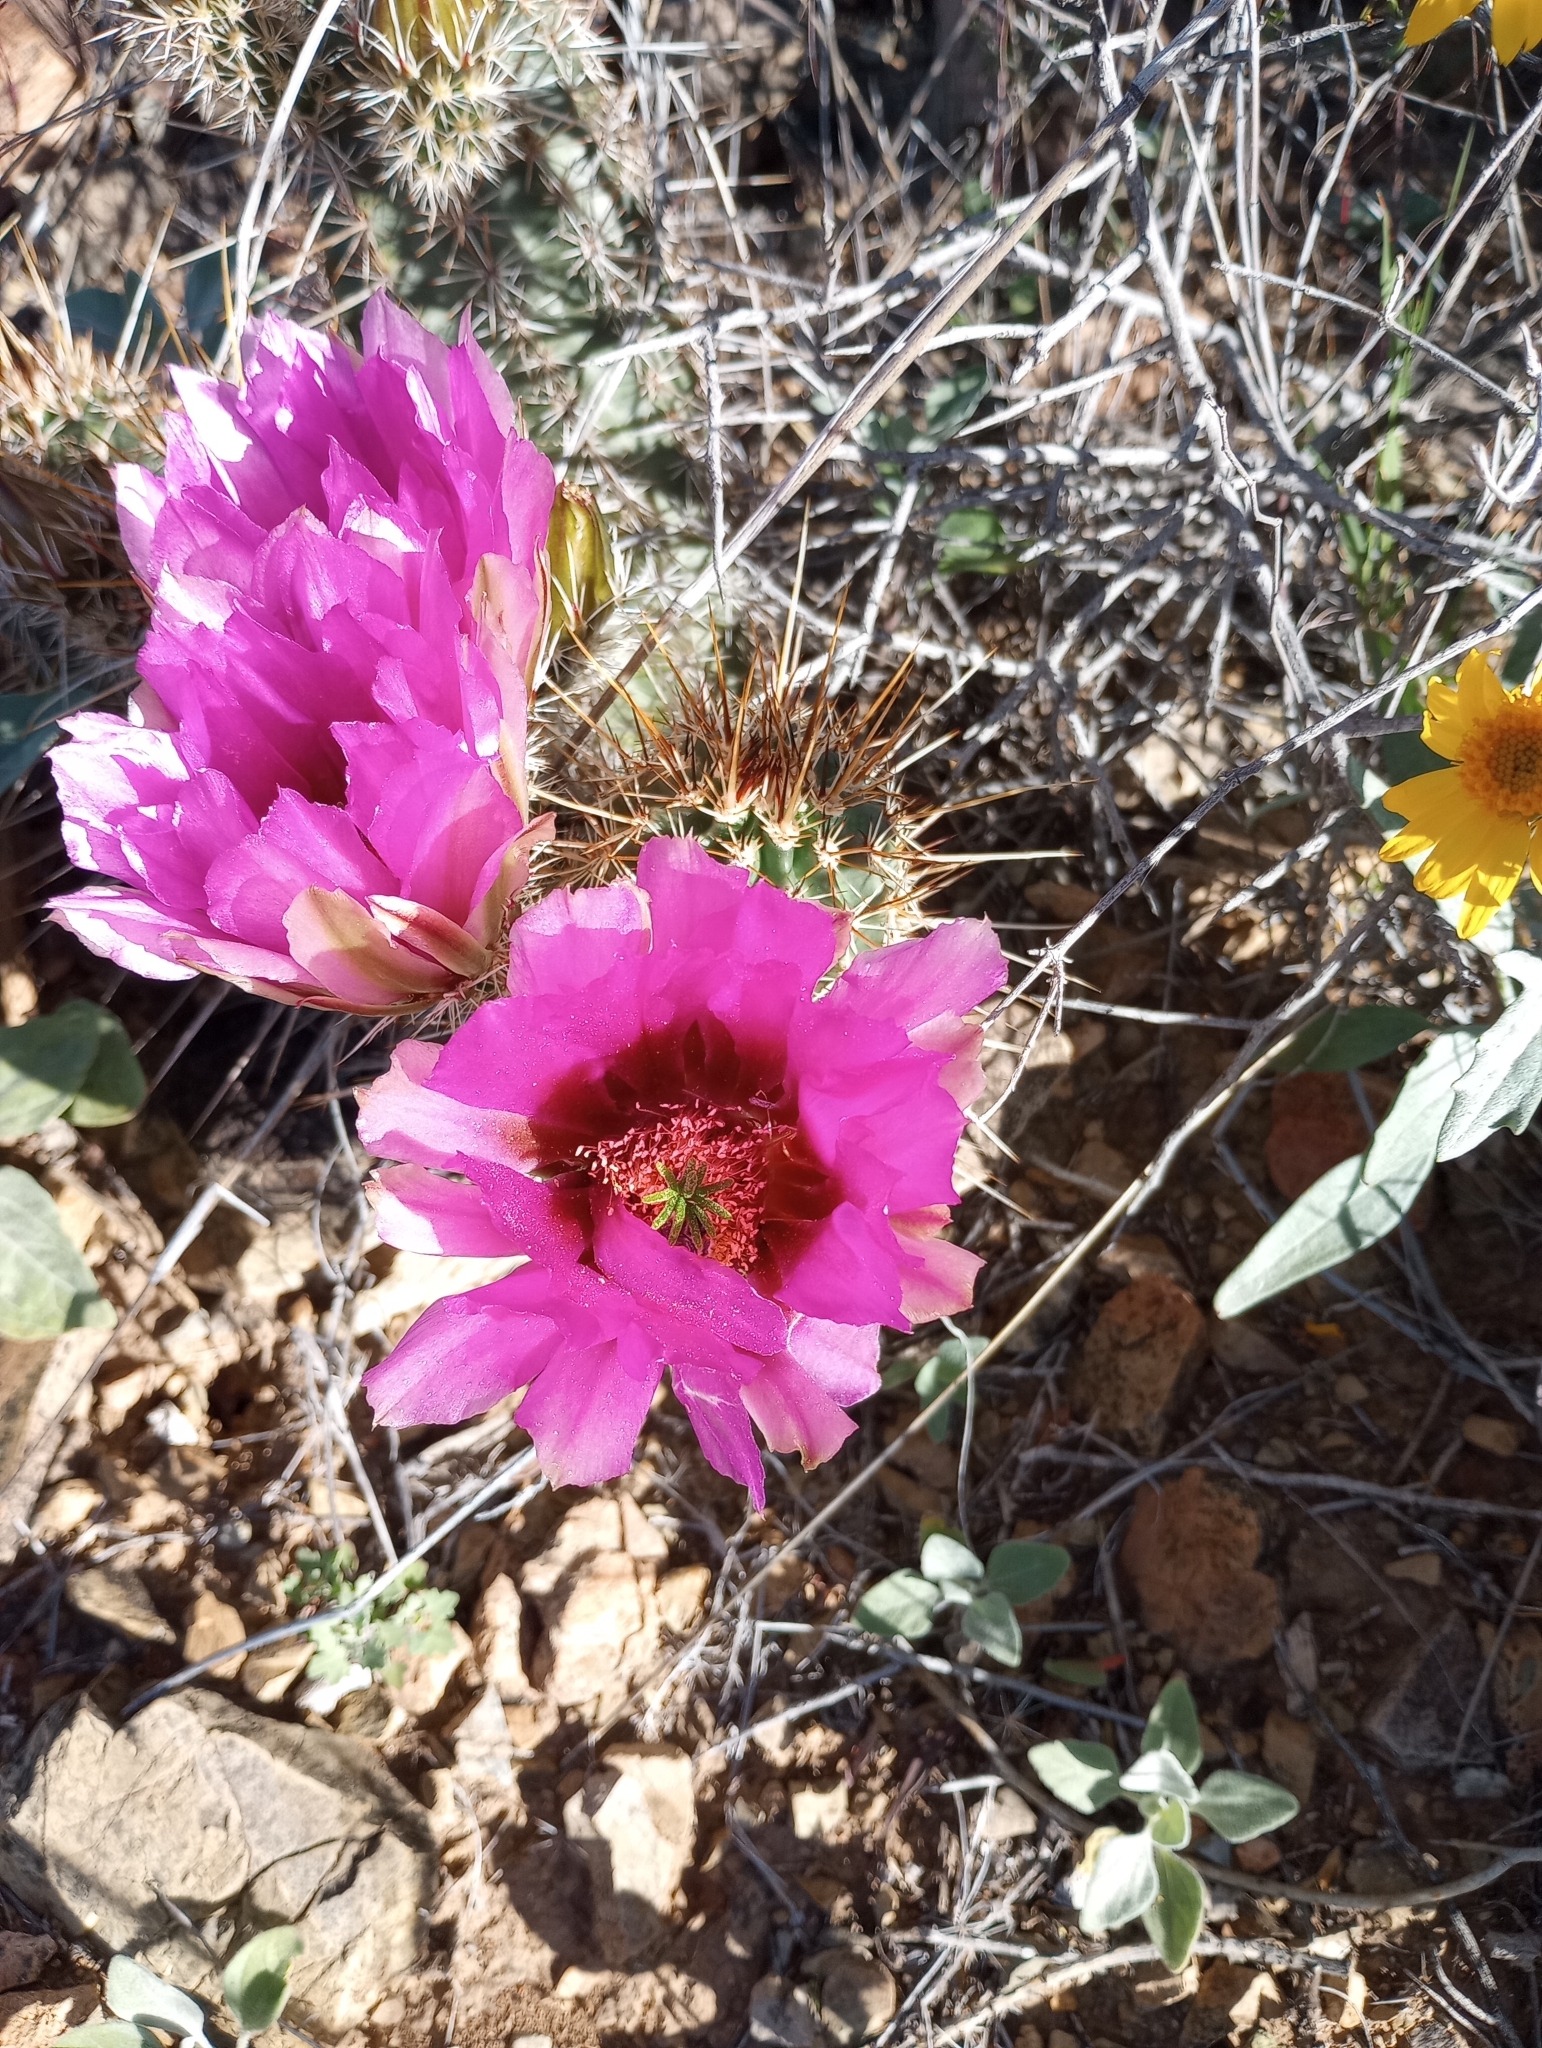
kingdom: Plantae
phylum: Tracheophyta
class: Magnoliopsida
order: Caryophyllales
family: Cactaceae
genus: Echinocereus
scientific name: Echinocereus engelmannii
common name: Engelmann's hedgehog cactus
